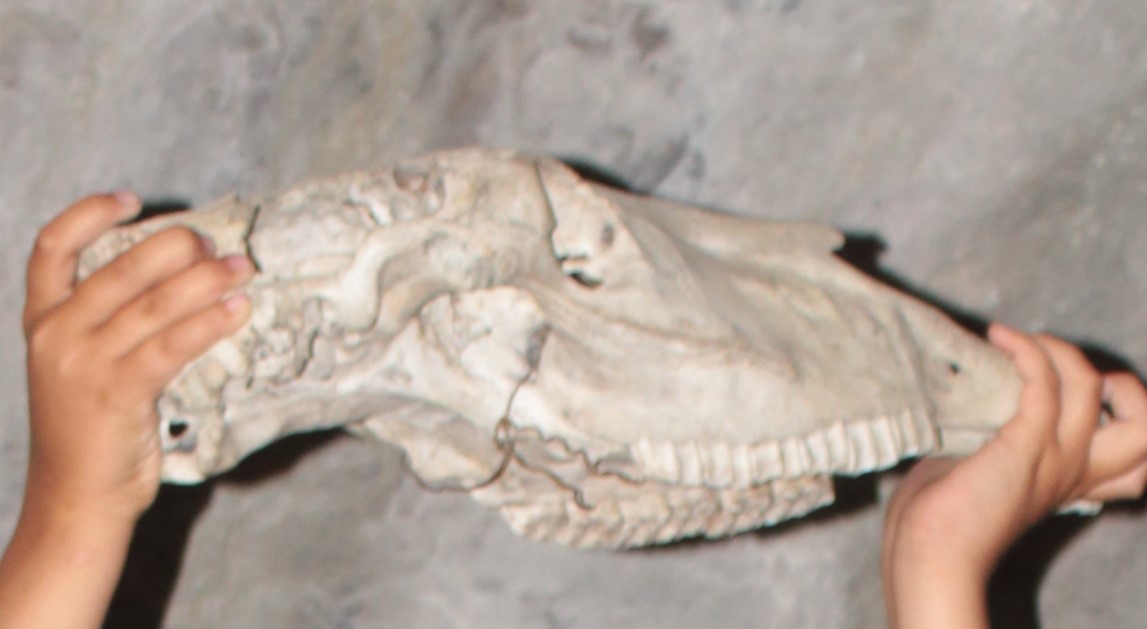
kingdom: Animalia
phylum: Chordata
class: Mammalia
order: Perissodactyla
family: Equidae
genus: Equus
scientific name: Equus caballus
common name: Horse
